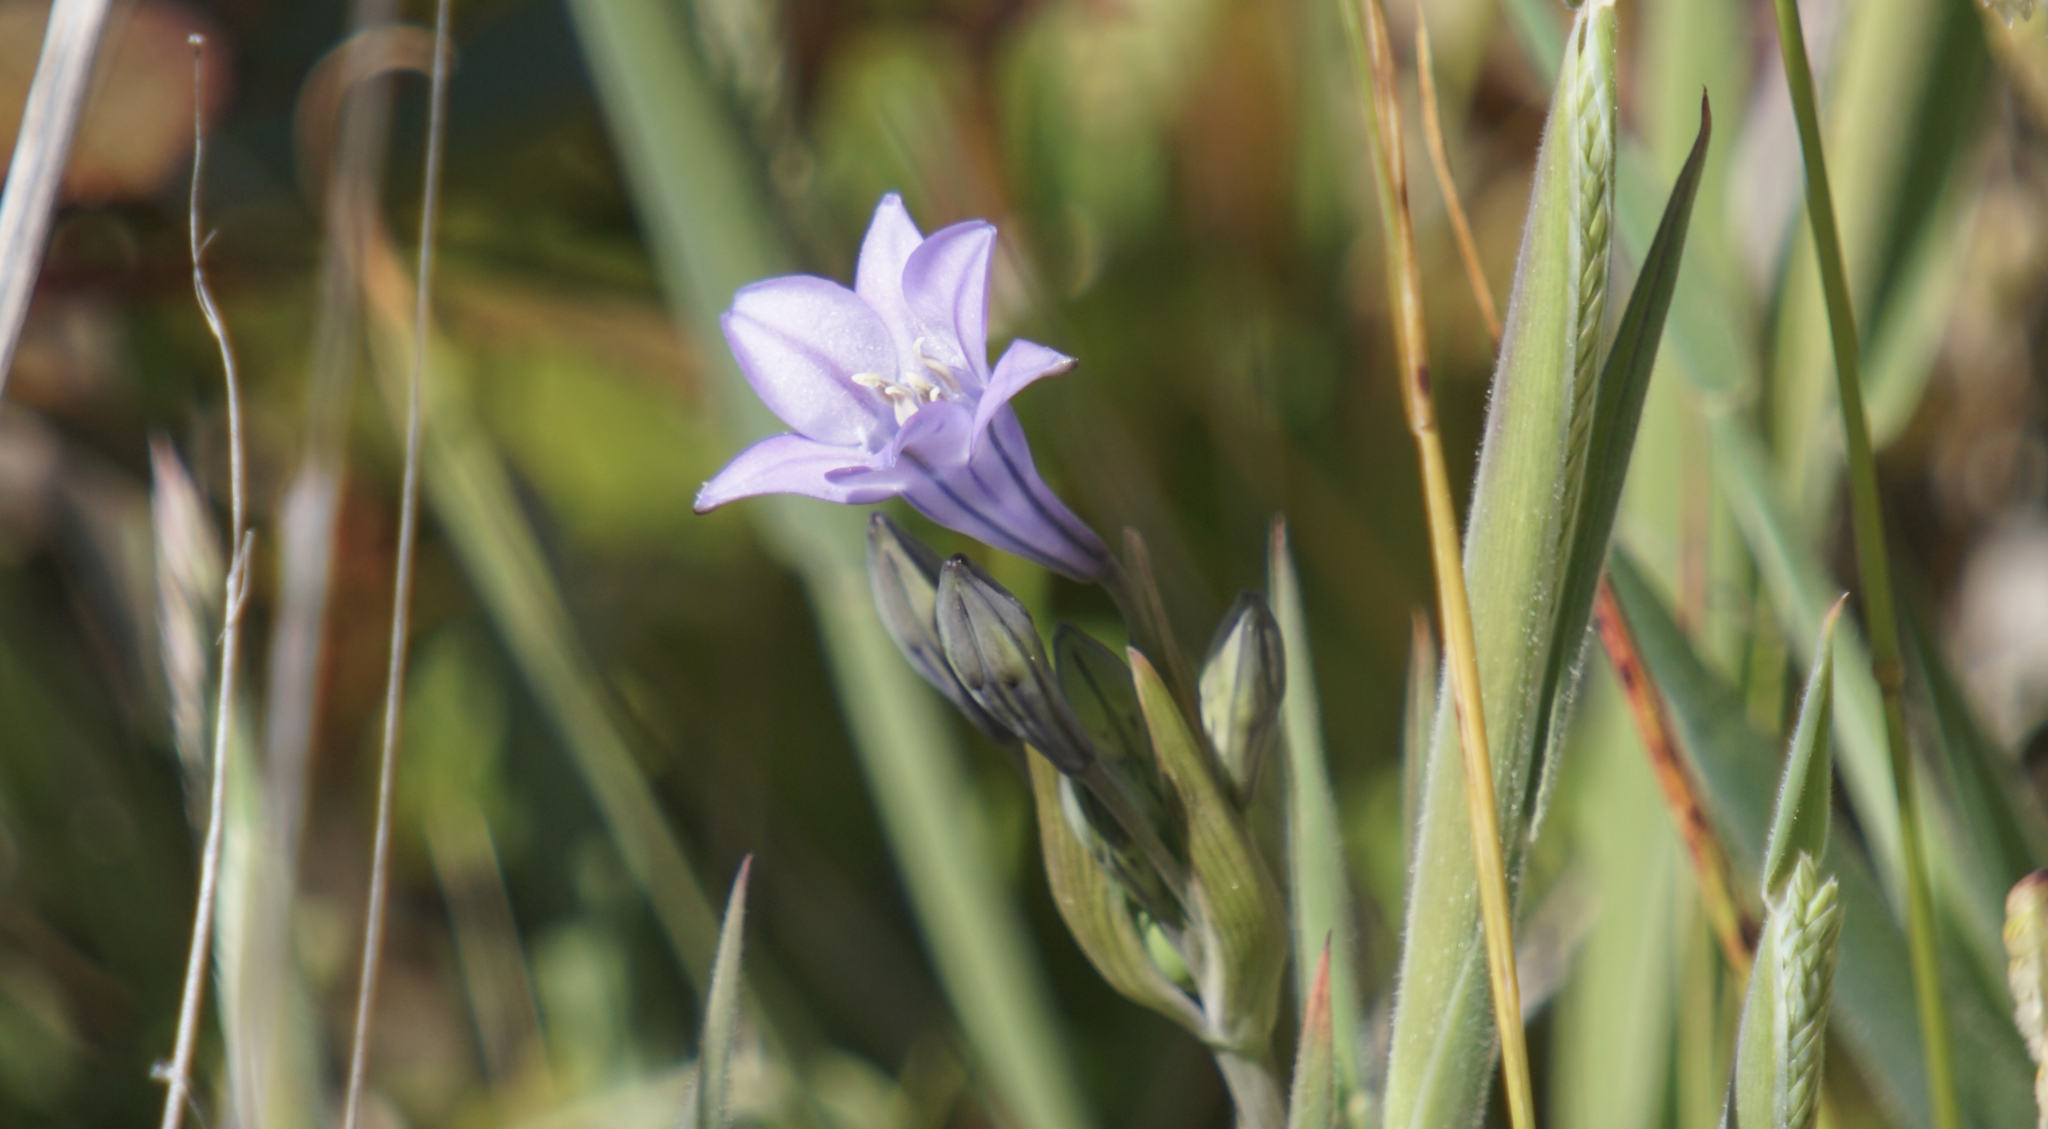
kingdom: Plantae
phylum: Tracheophyta
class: Liliopsida
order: Asparagales
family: Asparagaceae
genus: Triteleia
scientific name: Triteleia laxa
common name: Triplet-lily
